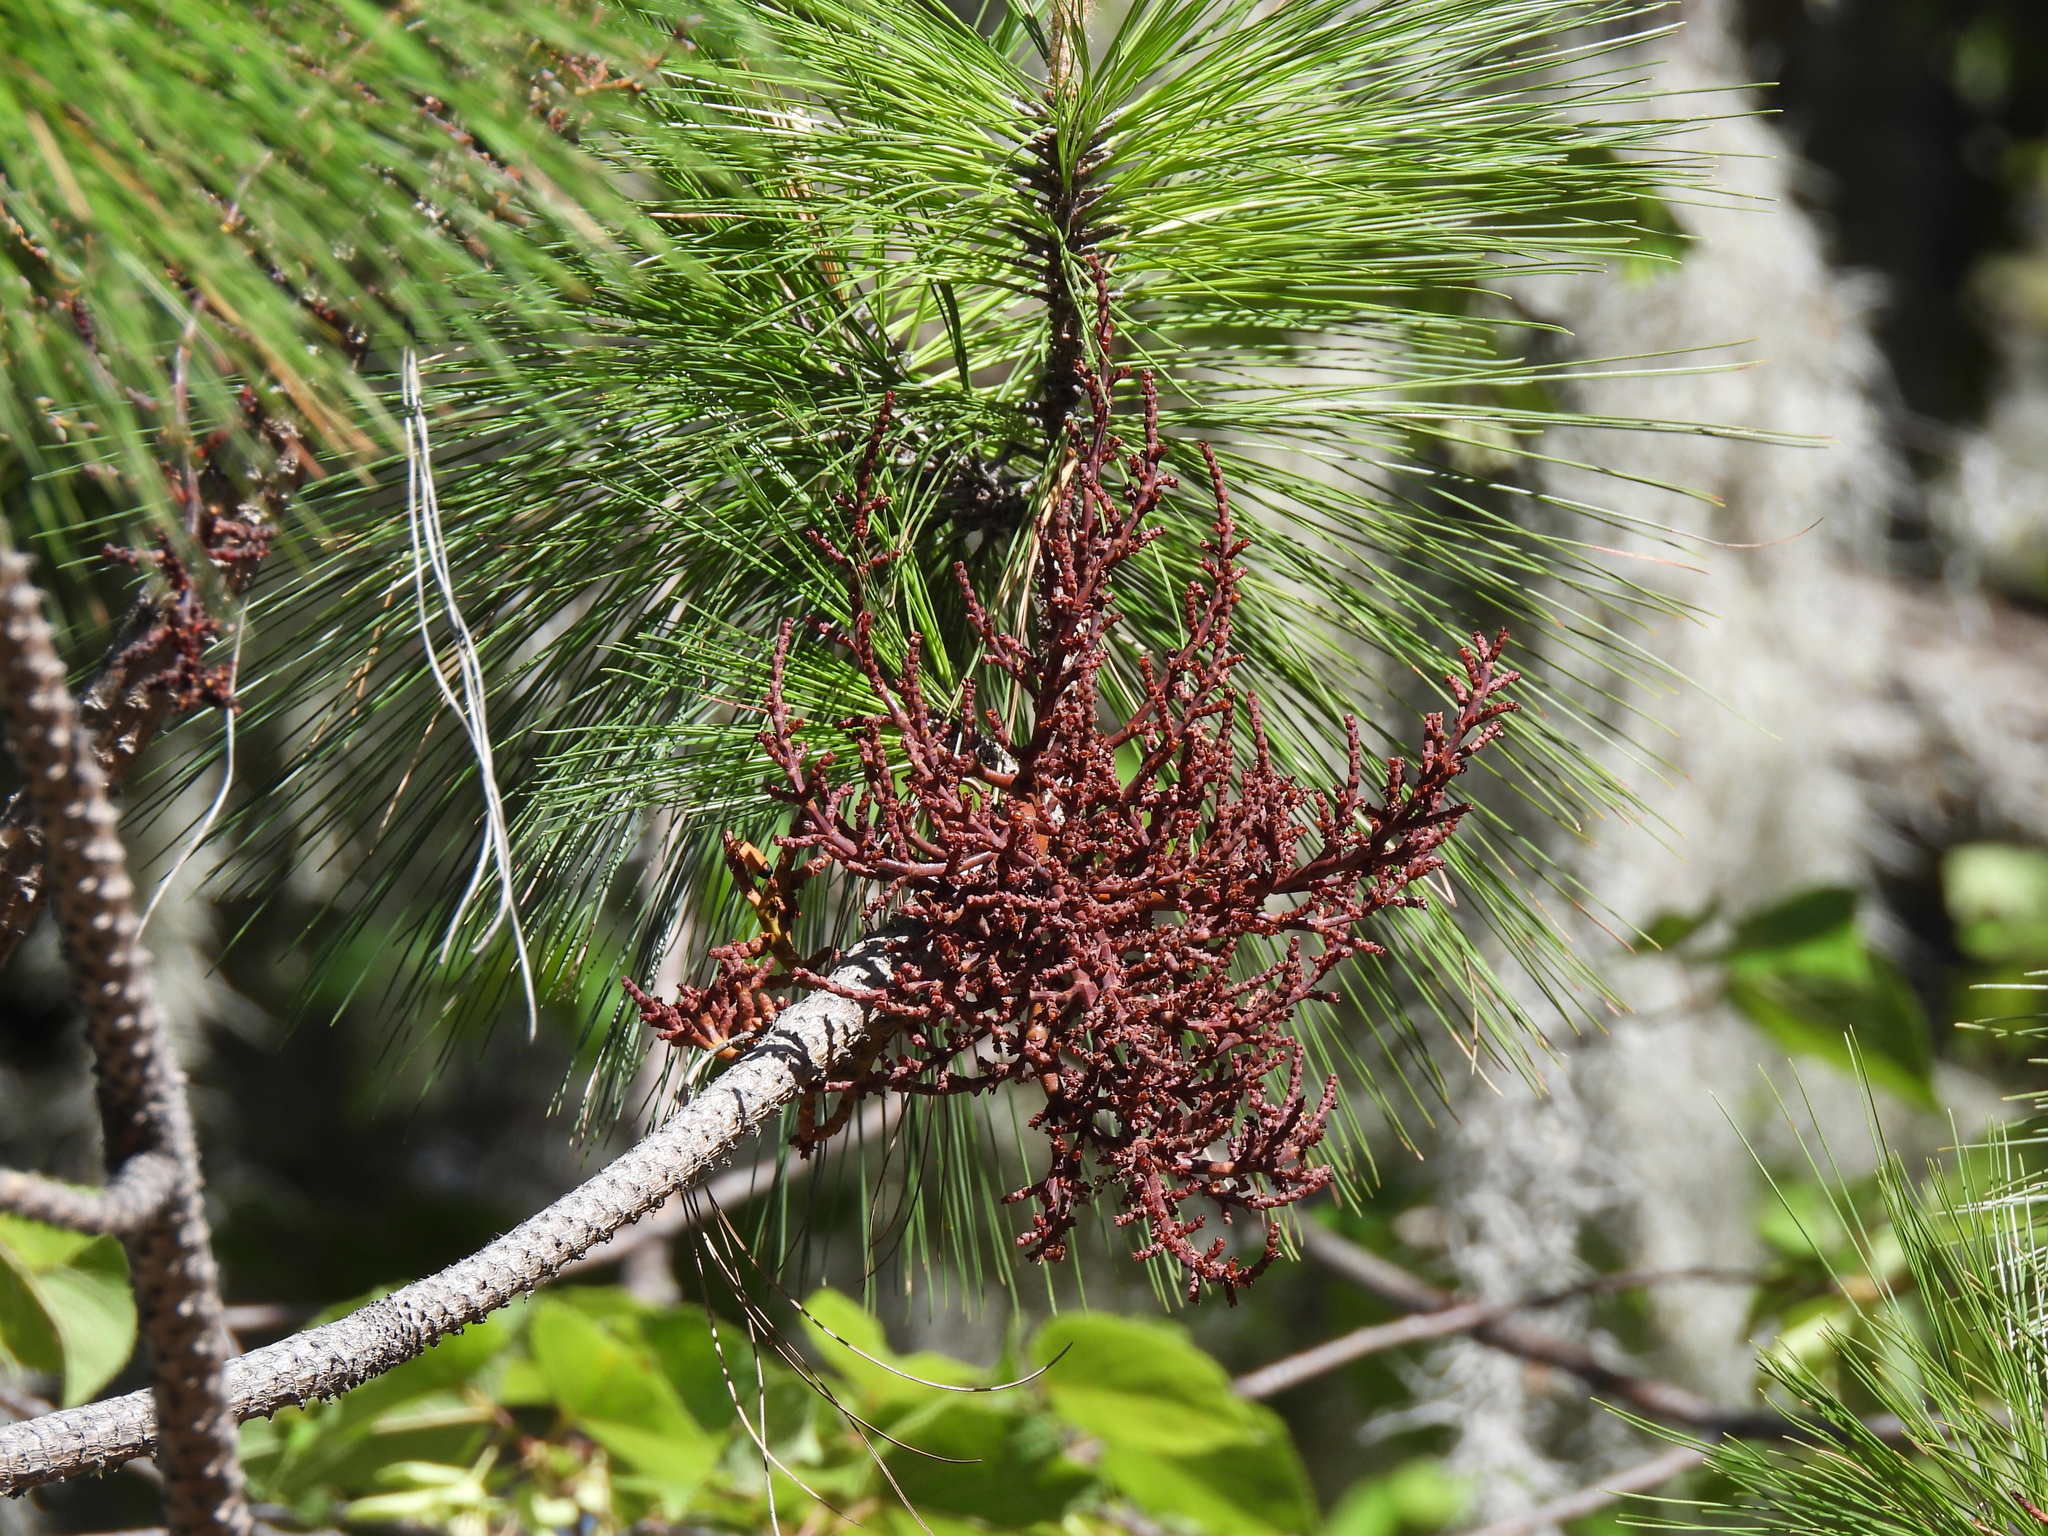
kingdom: Plantae
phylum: Tracheophyta
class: Magnoliopsida
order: Santalales
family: Viscaceae
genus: Arceuthobium
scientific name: Arceuthobium vaginatum
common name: Southwestern dwarf-mistletoe
